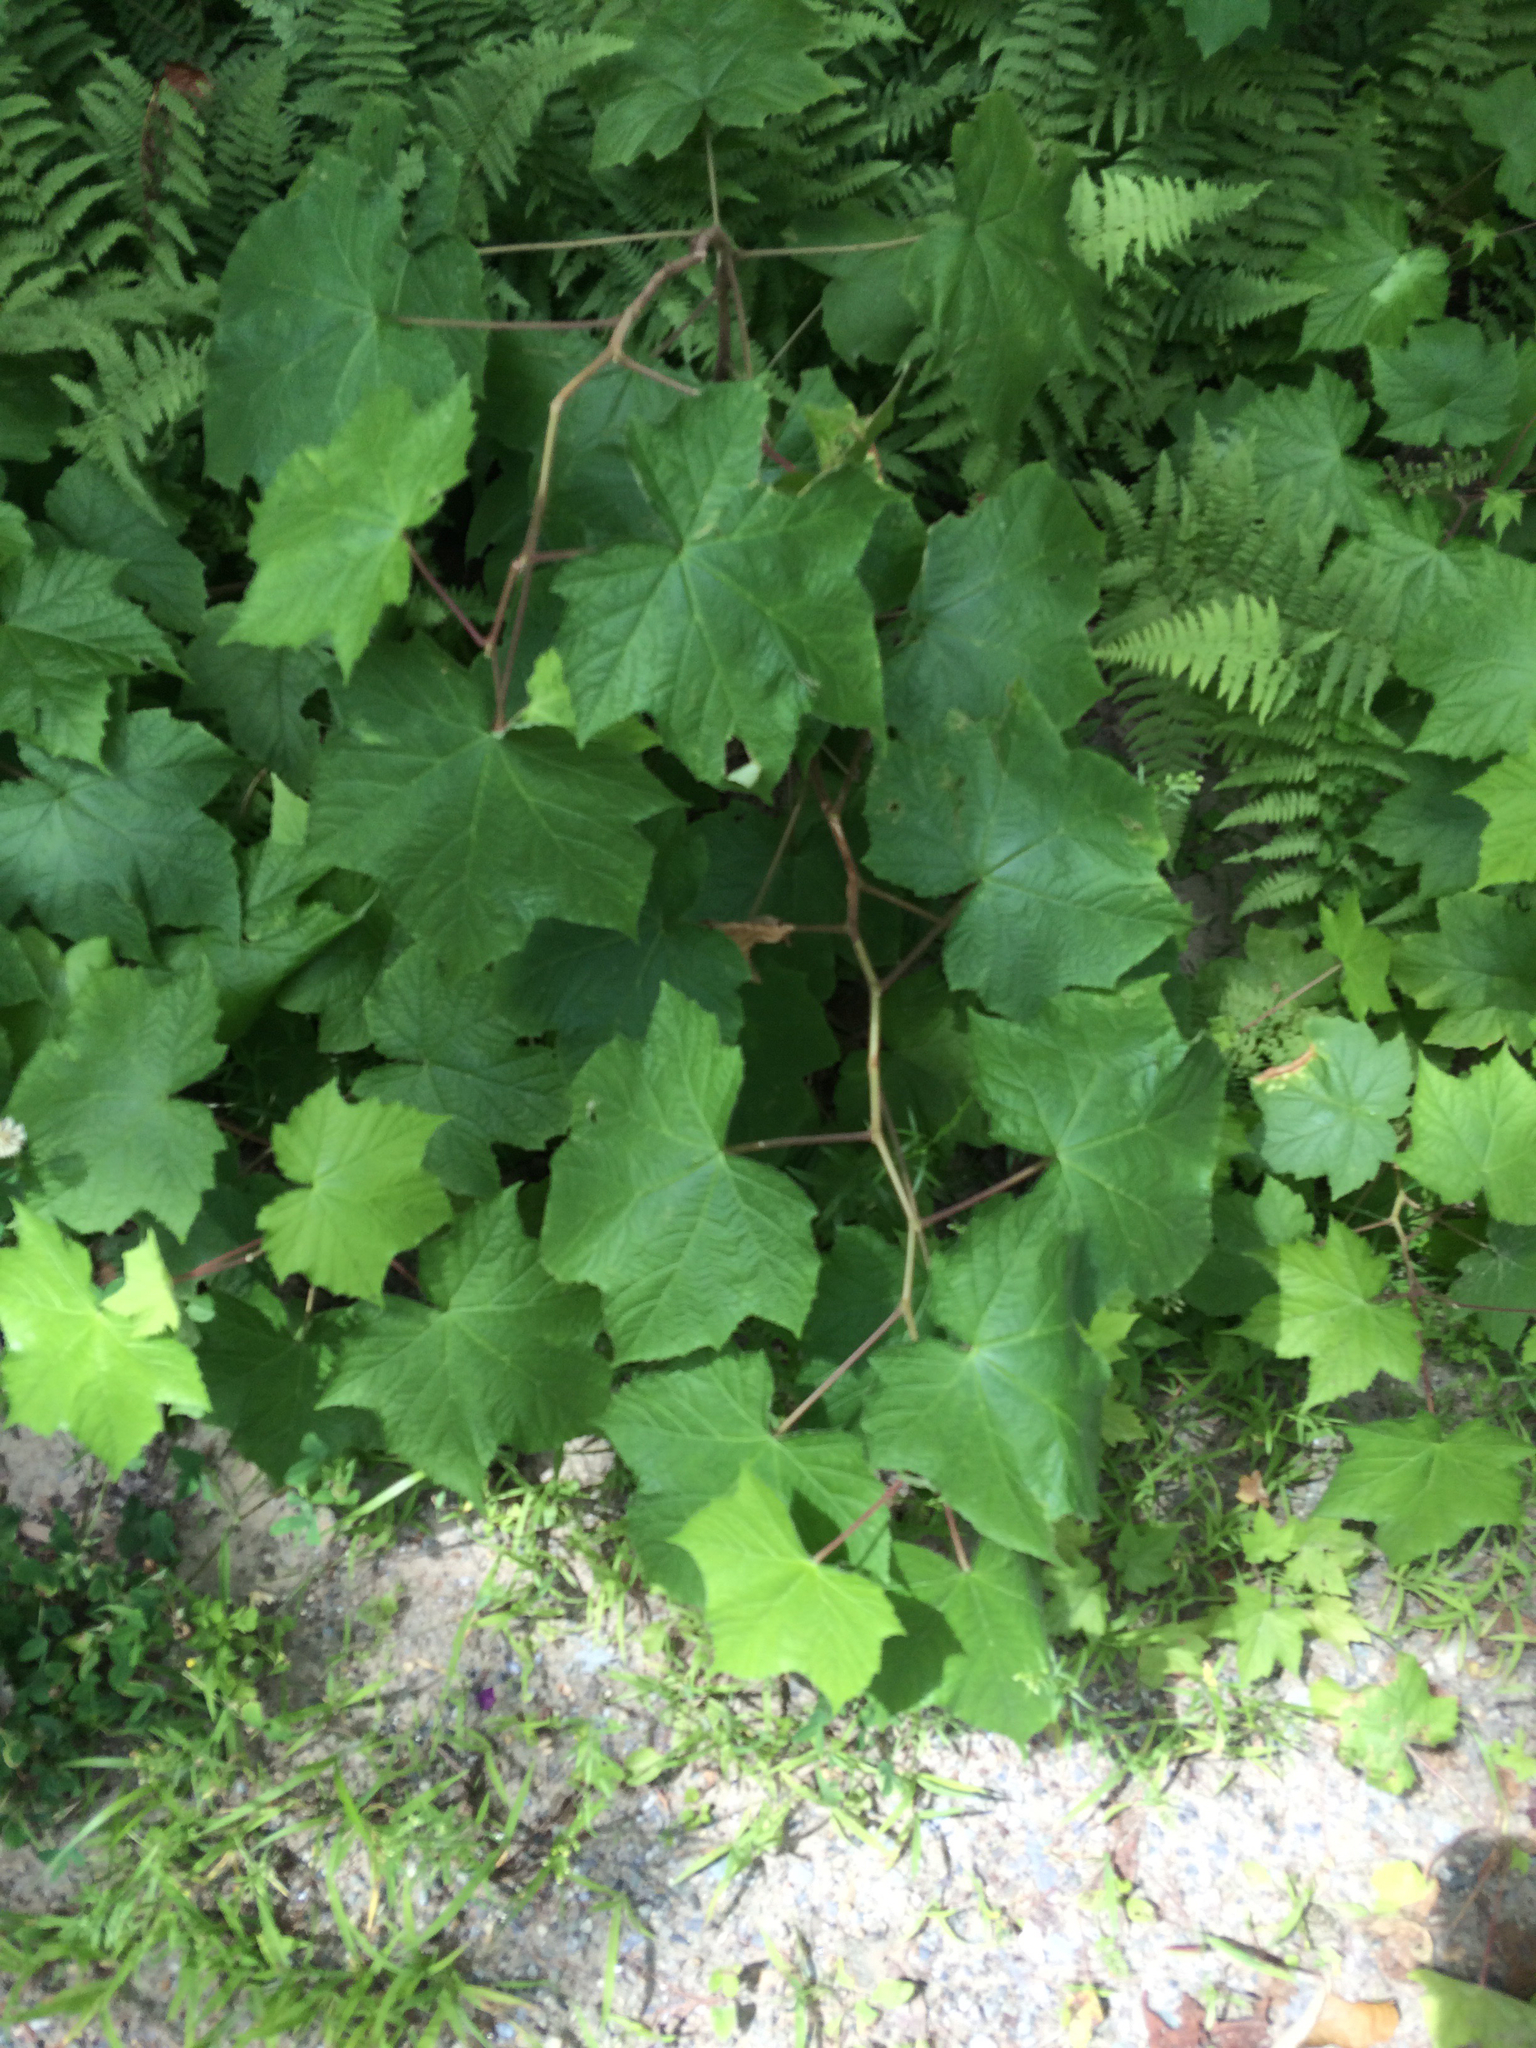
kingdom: Plantae
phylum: Tracheophyta
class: Magnoliopsida
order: Rosales
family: Rosaceae
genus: Rubus
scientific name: Rubus odoratus
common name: Purple-flowered raspberry
